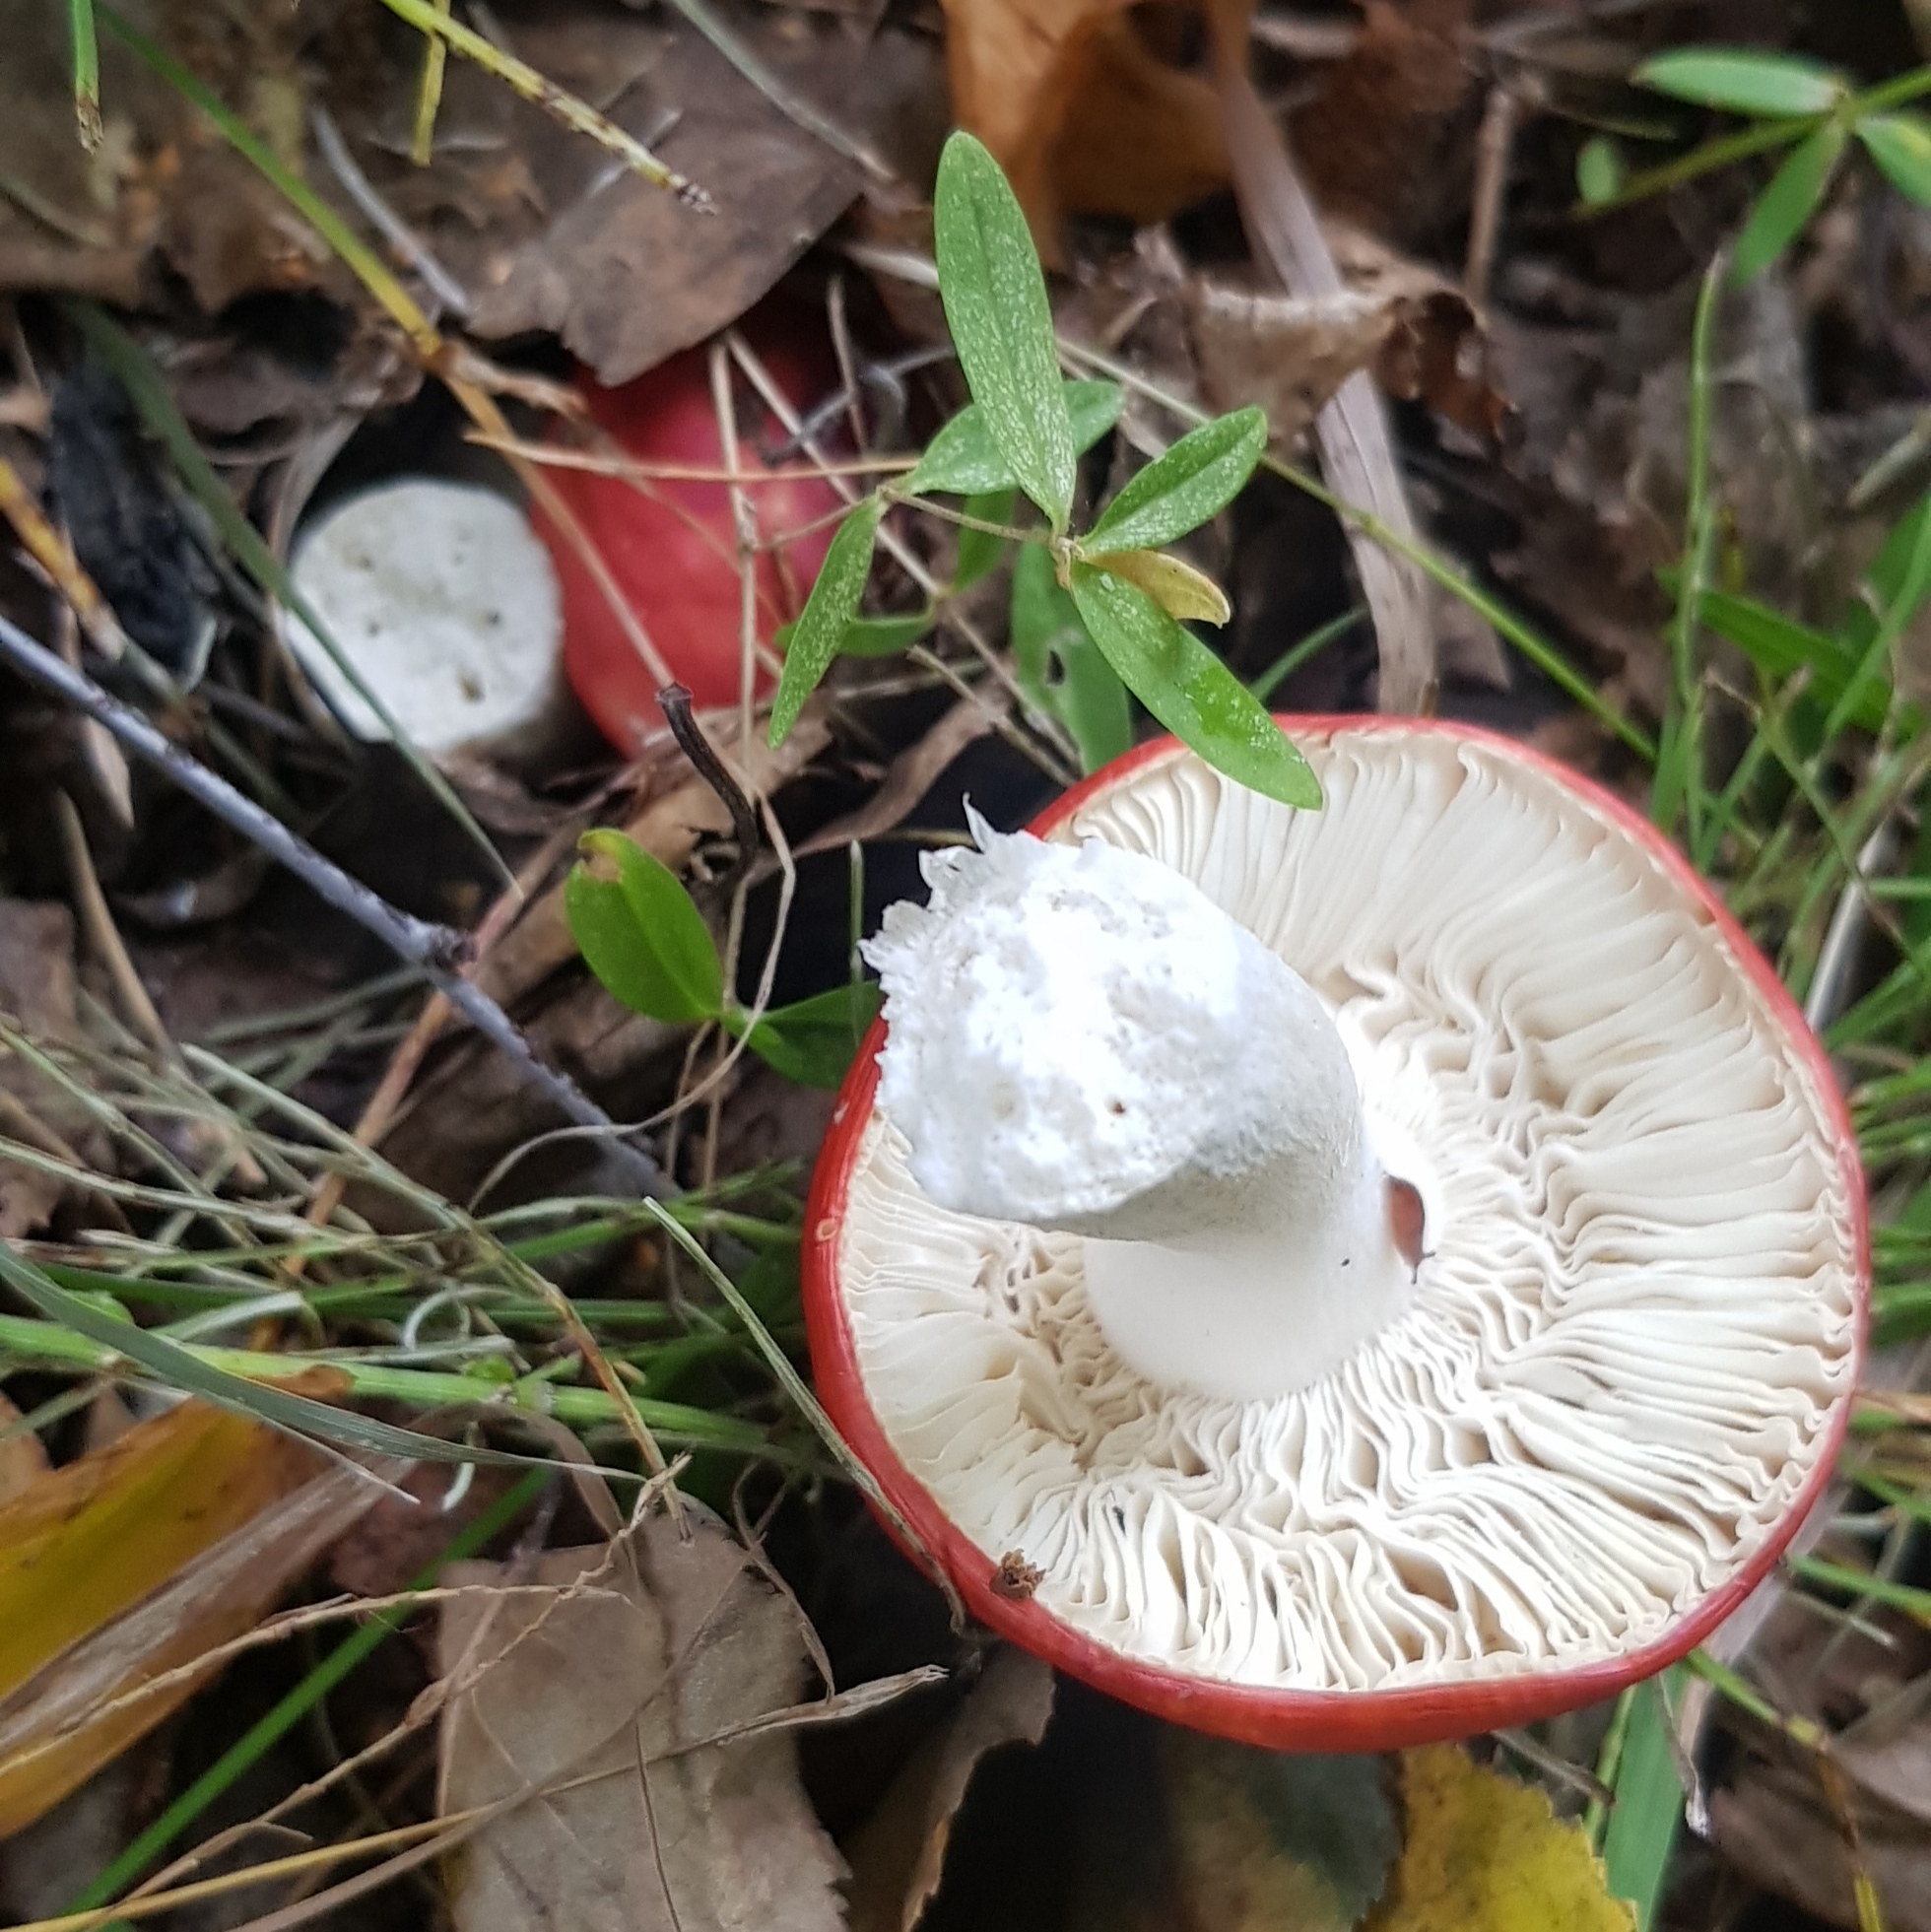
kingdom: Fungi
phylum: Basidiomycota
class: Agaricomycetes
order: Russulales
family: Russulaceae
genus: Russula
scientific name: Russula
